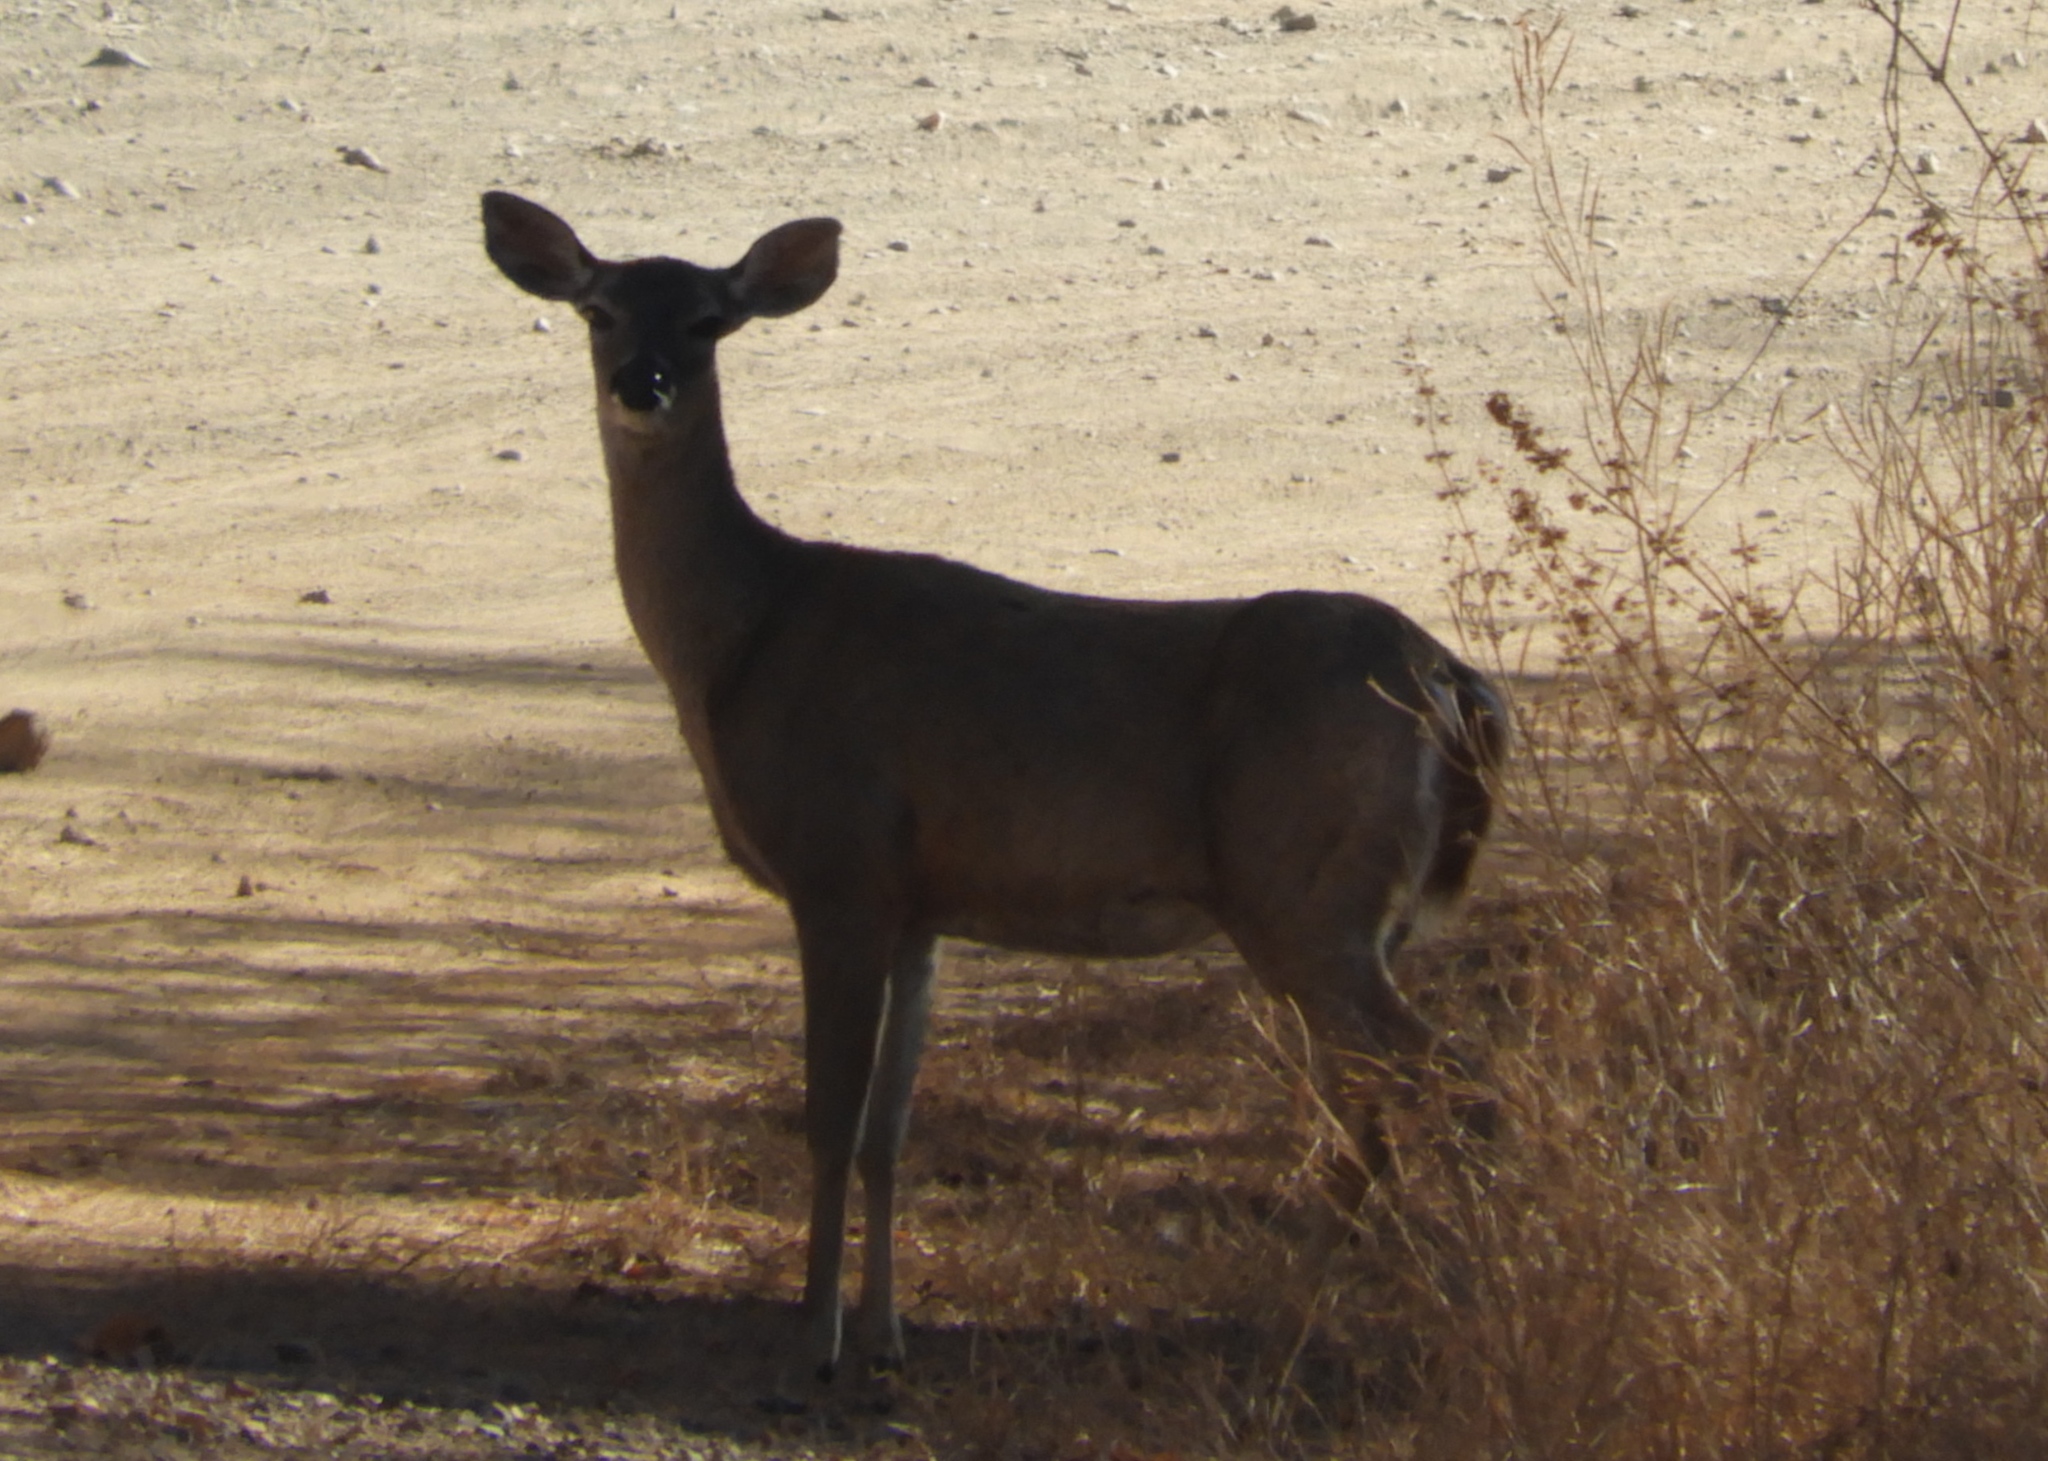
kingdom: Animalia
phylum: Chordata
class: Mammalia
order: Artiodactyla
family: Cervidae
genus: Odocoileus
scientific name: Odocoileus virginianus
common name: White-tailed deer
